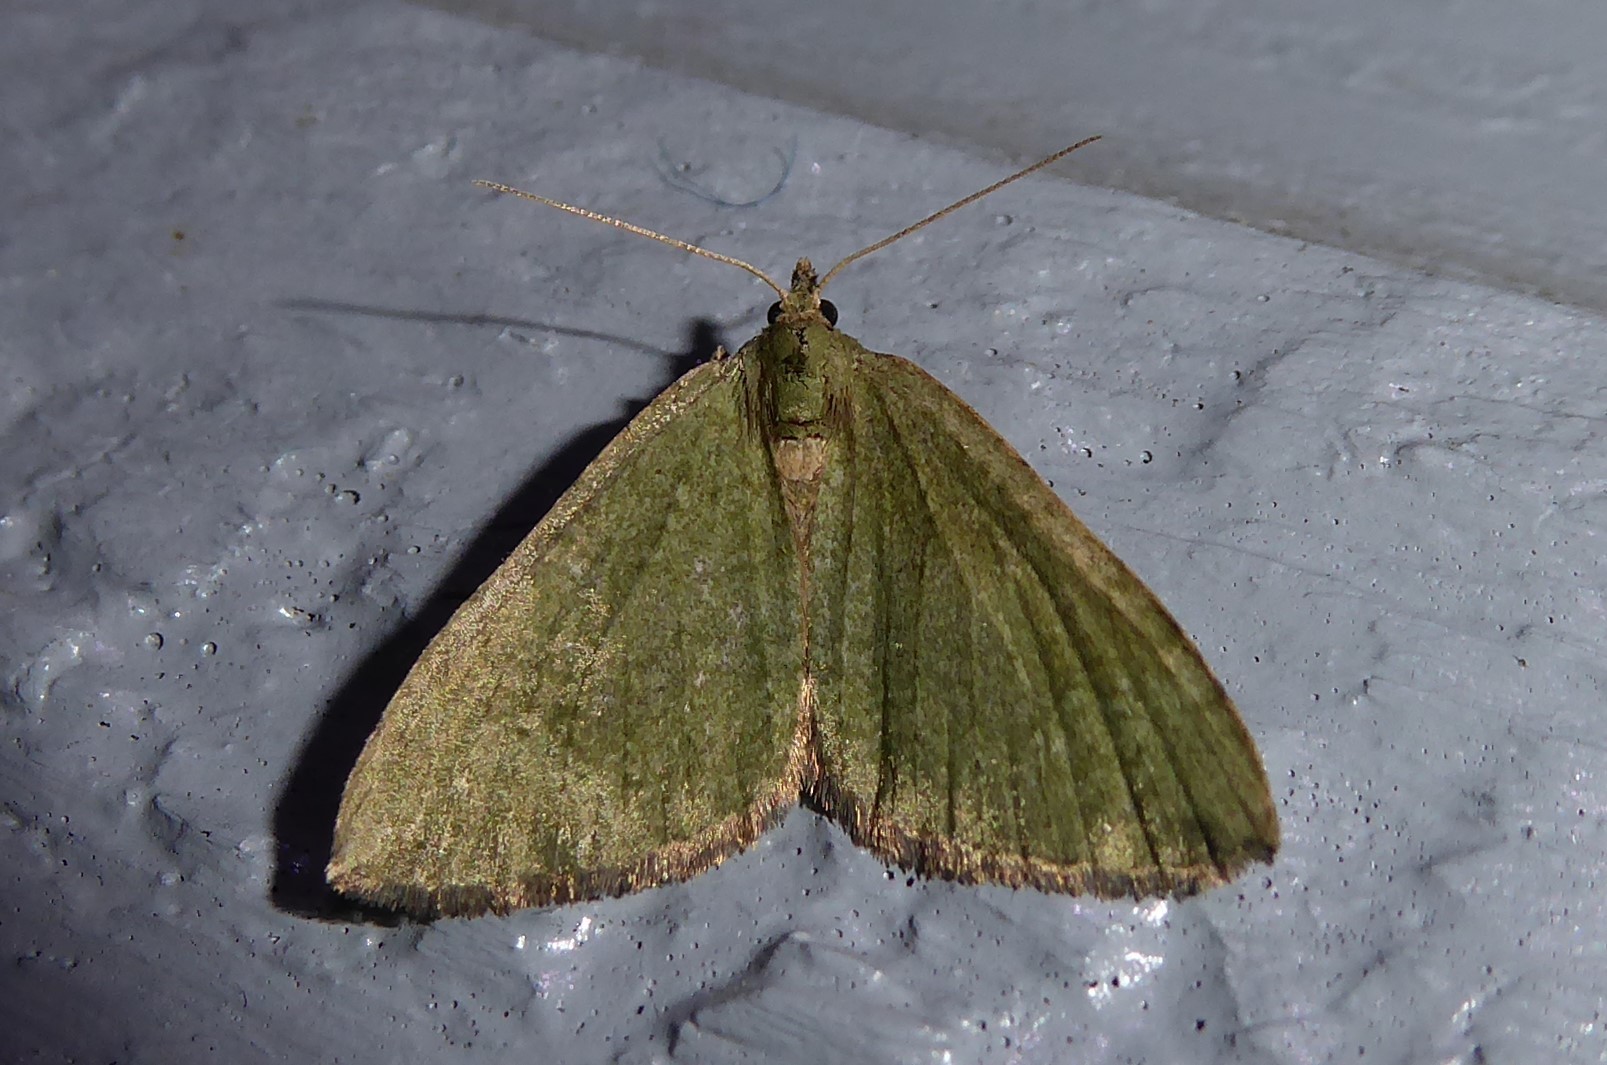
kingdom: Animalia
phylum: Arthropoda
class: Insecta
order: Lepidoptera
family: Geometridae
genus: Epyaxa
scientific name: Epyaxa rosearia
